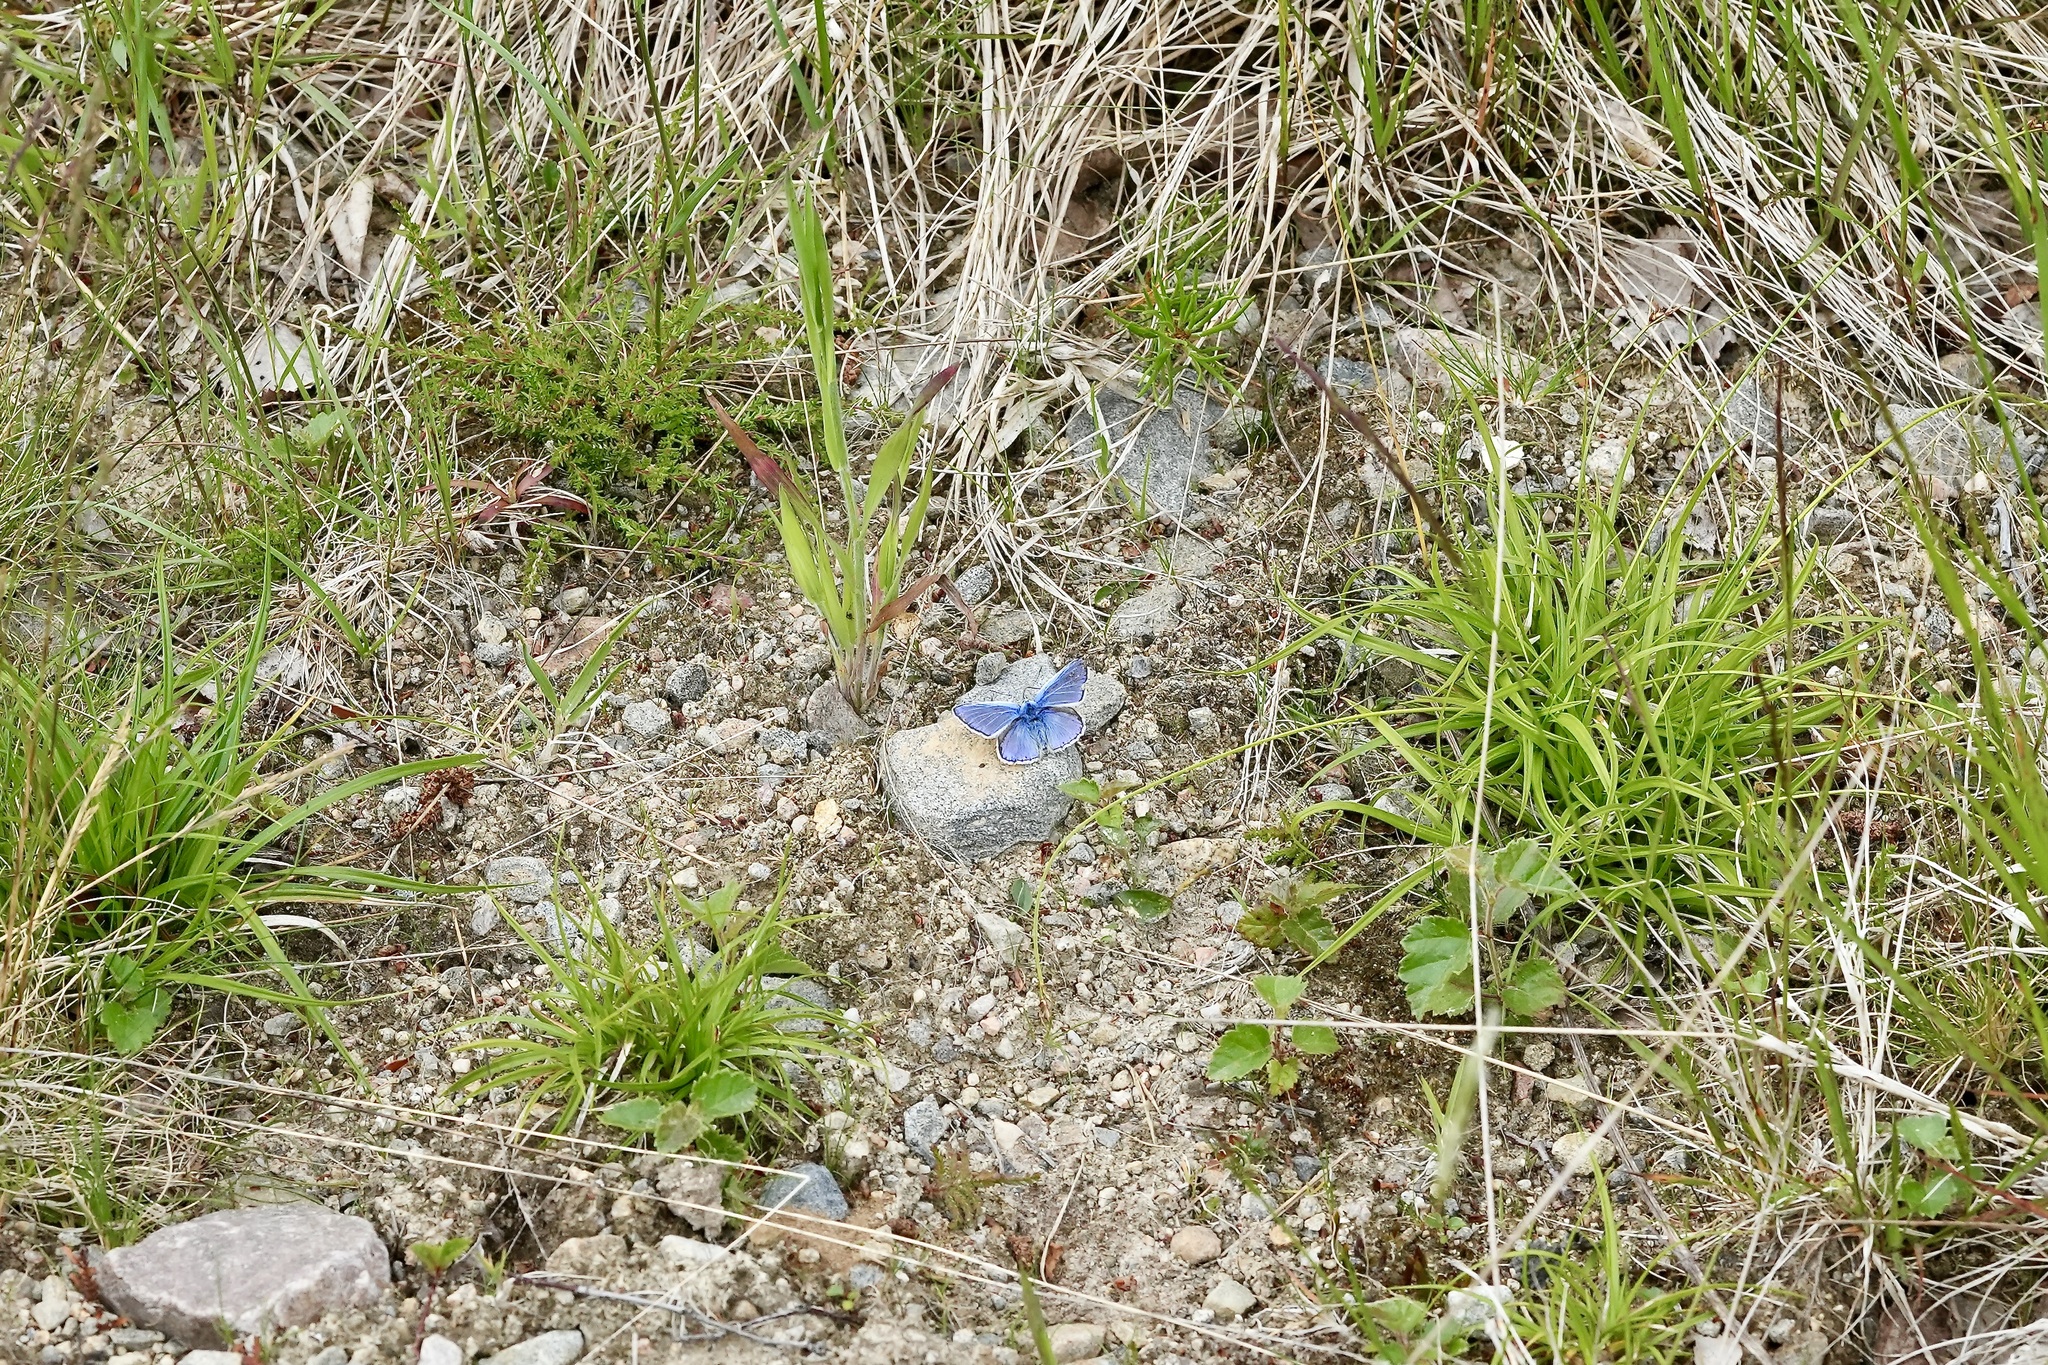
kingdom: Animalia
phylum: Arthropoda
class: Insecta
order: Lepidoptera
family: Lycaenidae
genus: Polyommatus
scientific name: Polyommatus icarus
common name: Common blue
